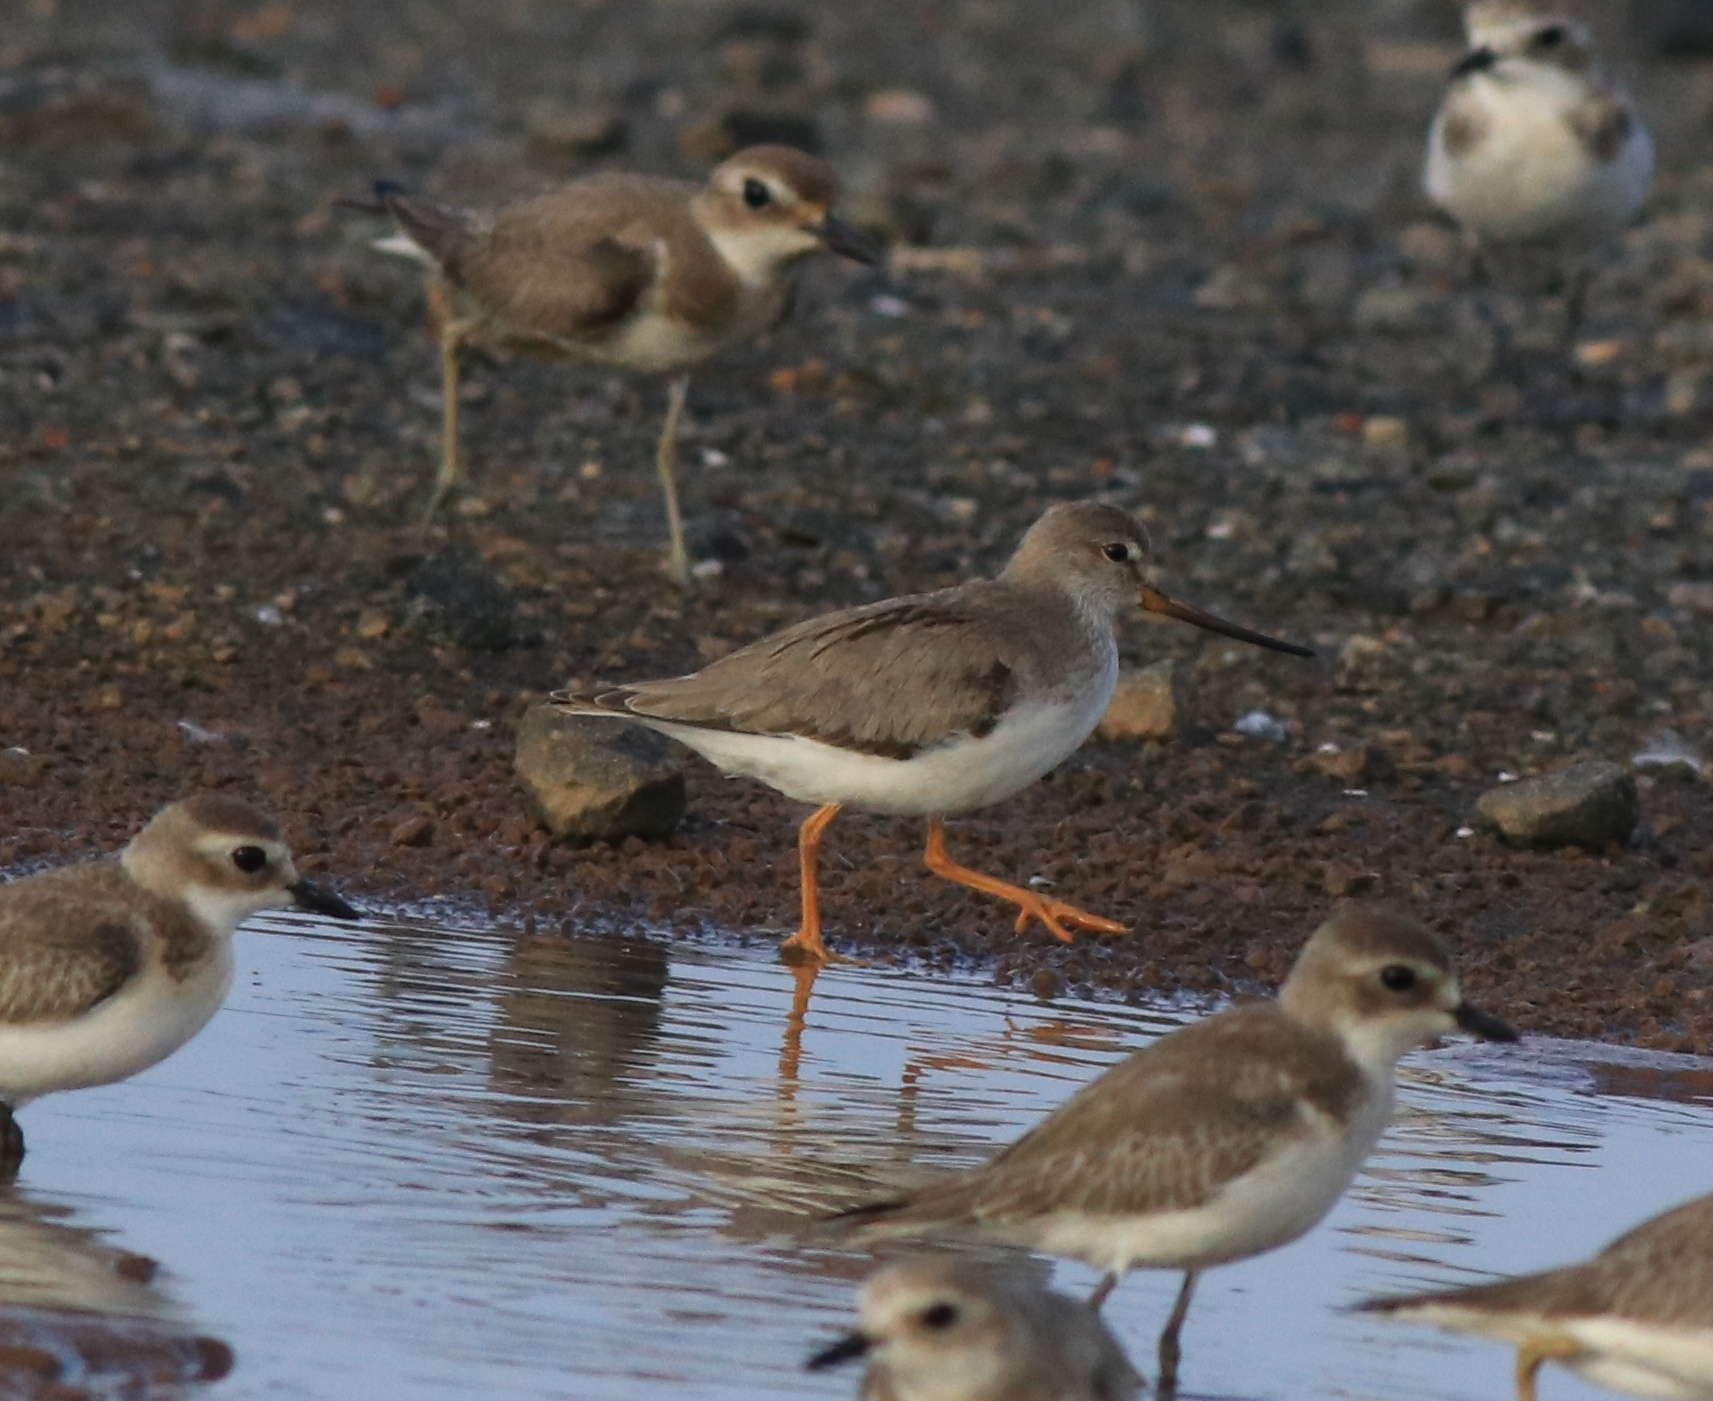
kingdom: Animalia
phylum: Chordata
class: Aves
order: Charadriiformes
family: Scolopacidae
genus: Xenus
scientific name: Xenus cinereus
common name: Terek sandpiper
